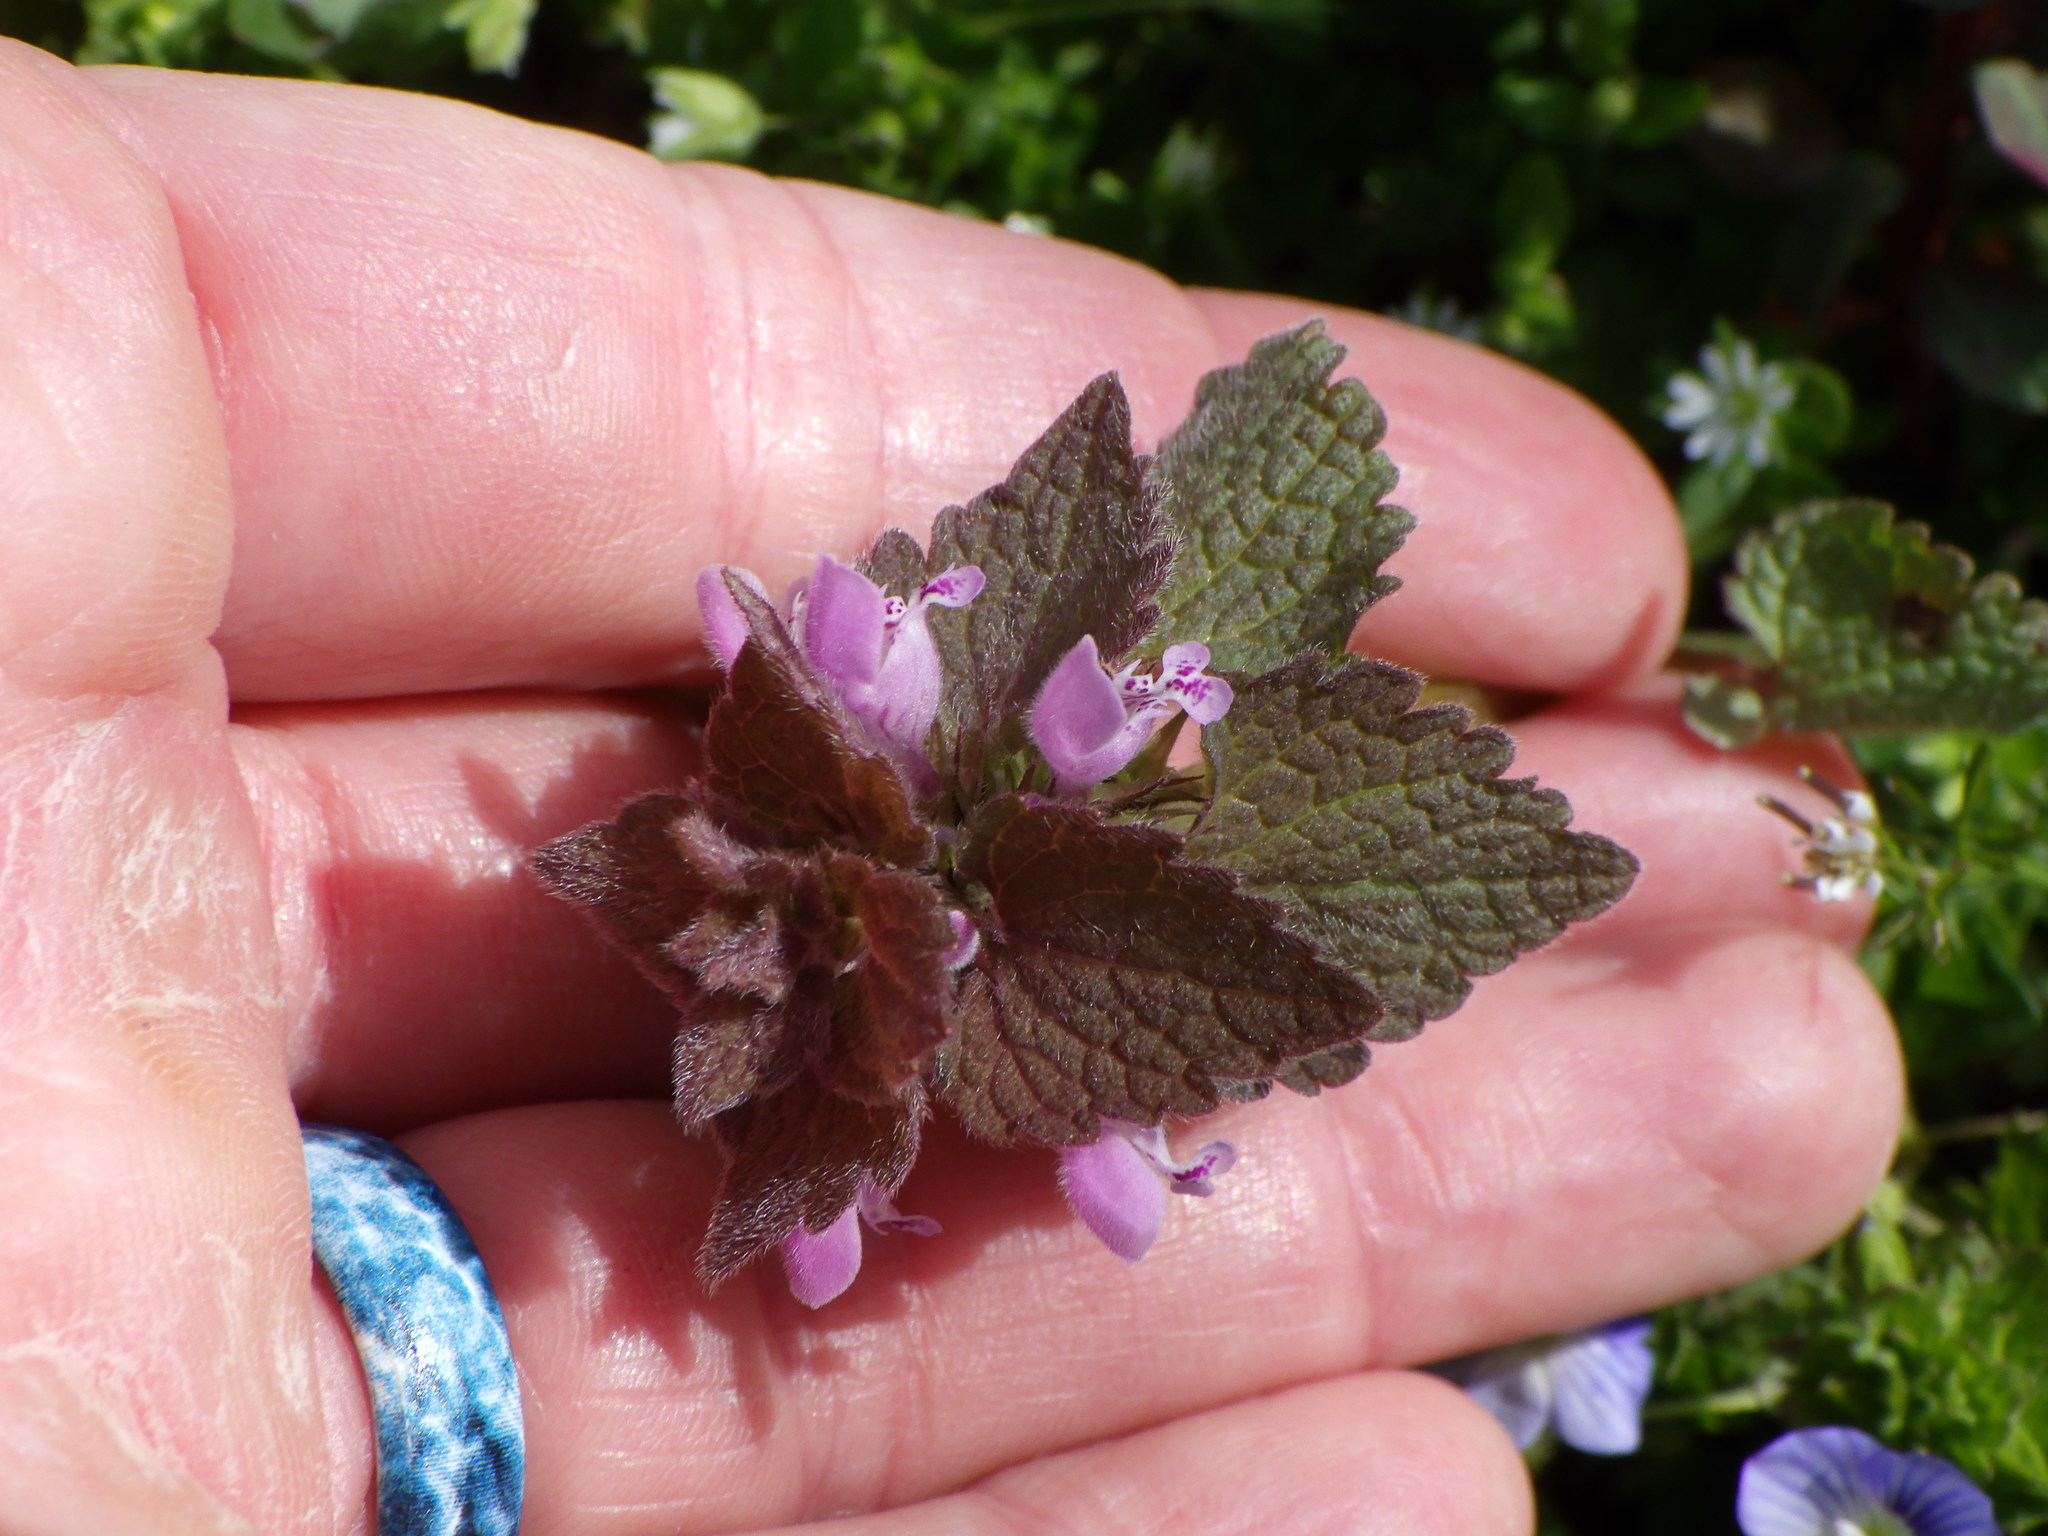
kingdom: Plantae
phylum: Tracheophyta
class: Magnoliopsida
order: Lamiales
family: Lamiaceae
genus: Lamium
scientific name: Lamium purpureum
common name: Red dead-nettle
